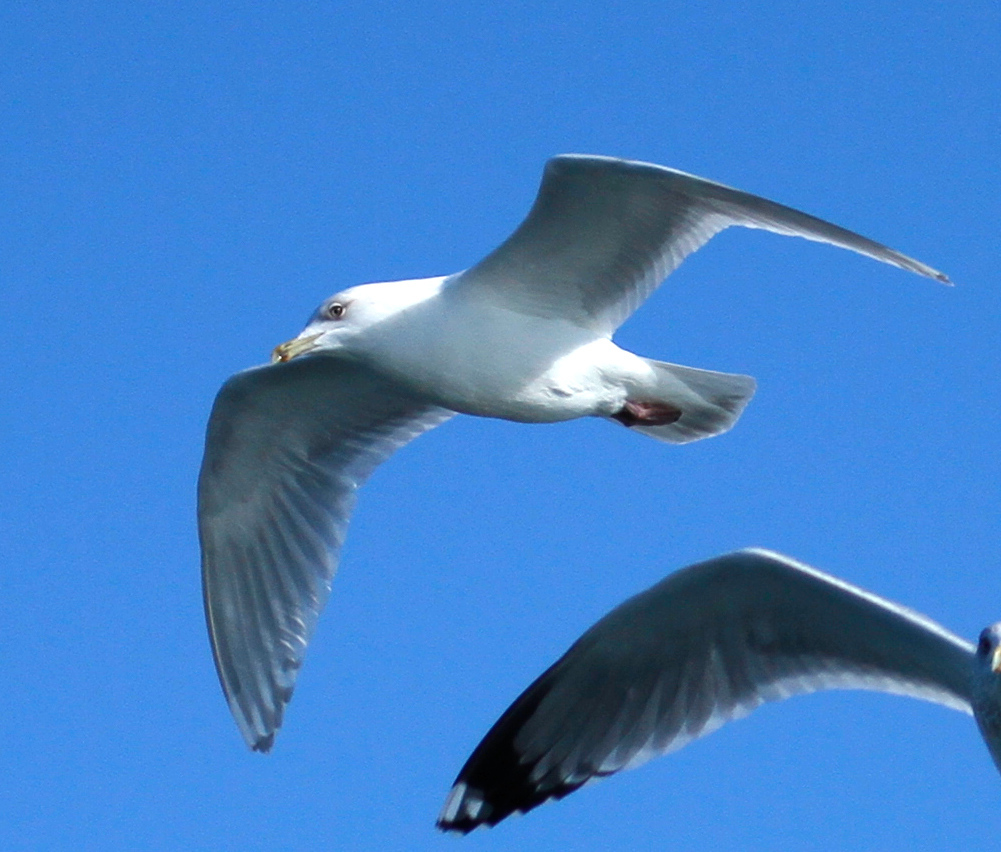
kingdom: Animalia
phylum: Chordata
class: Aves
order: Charadriiformes
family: Laridae
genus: Larus
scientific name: Larus glaucoides
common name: Iceland gull
